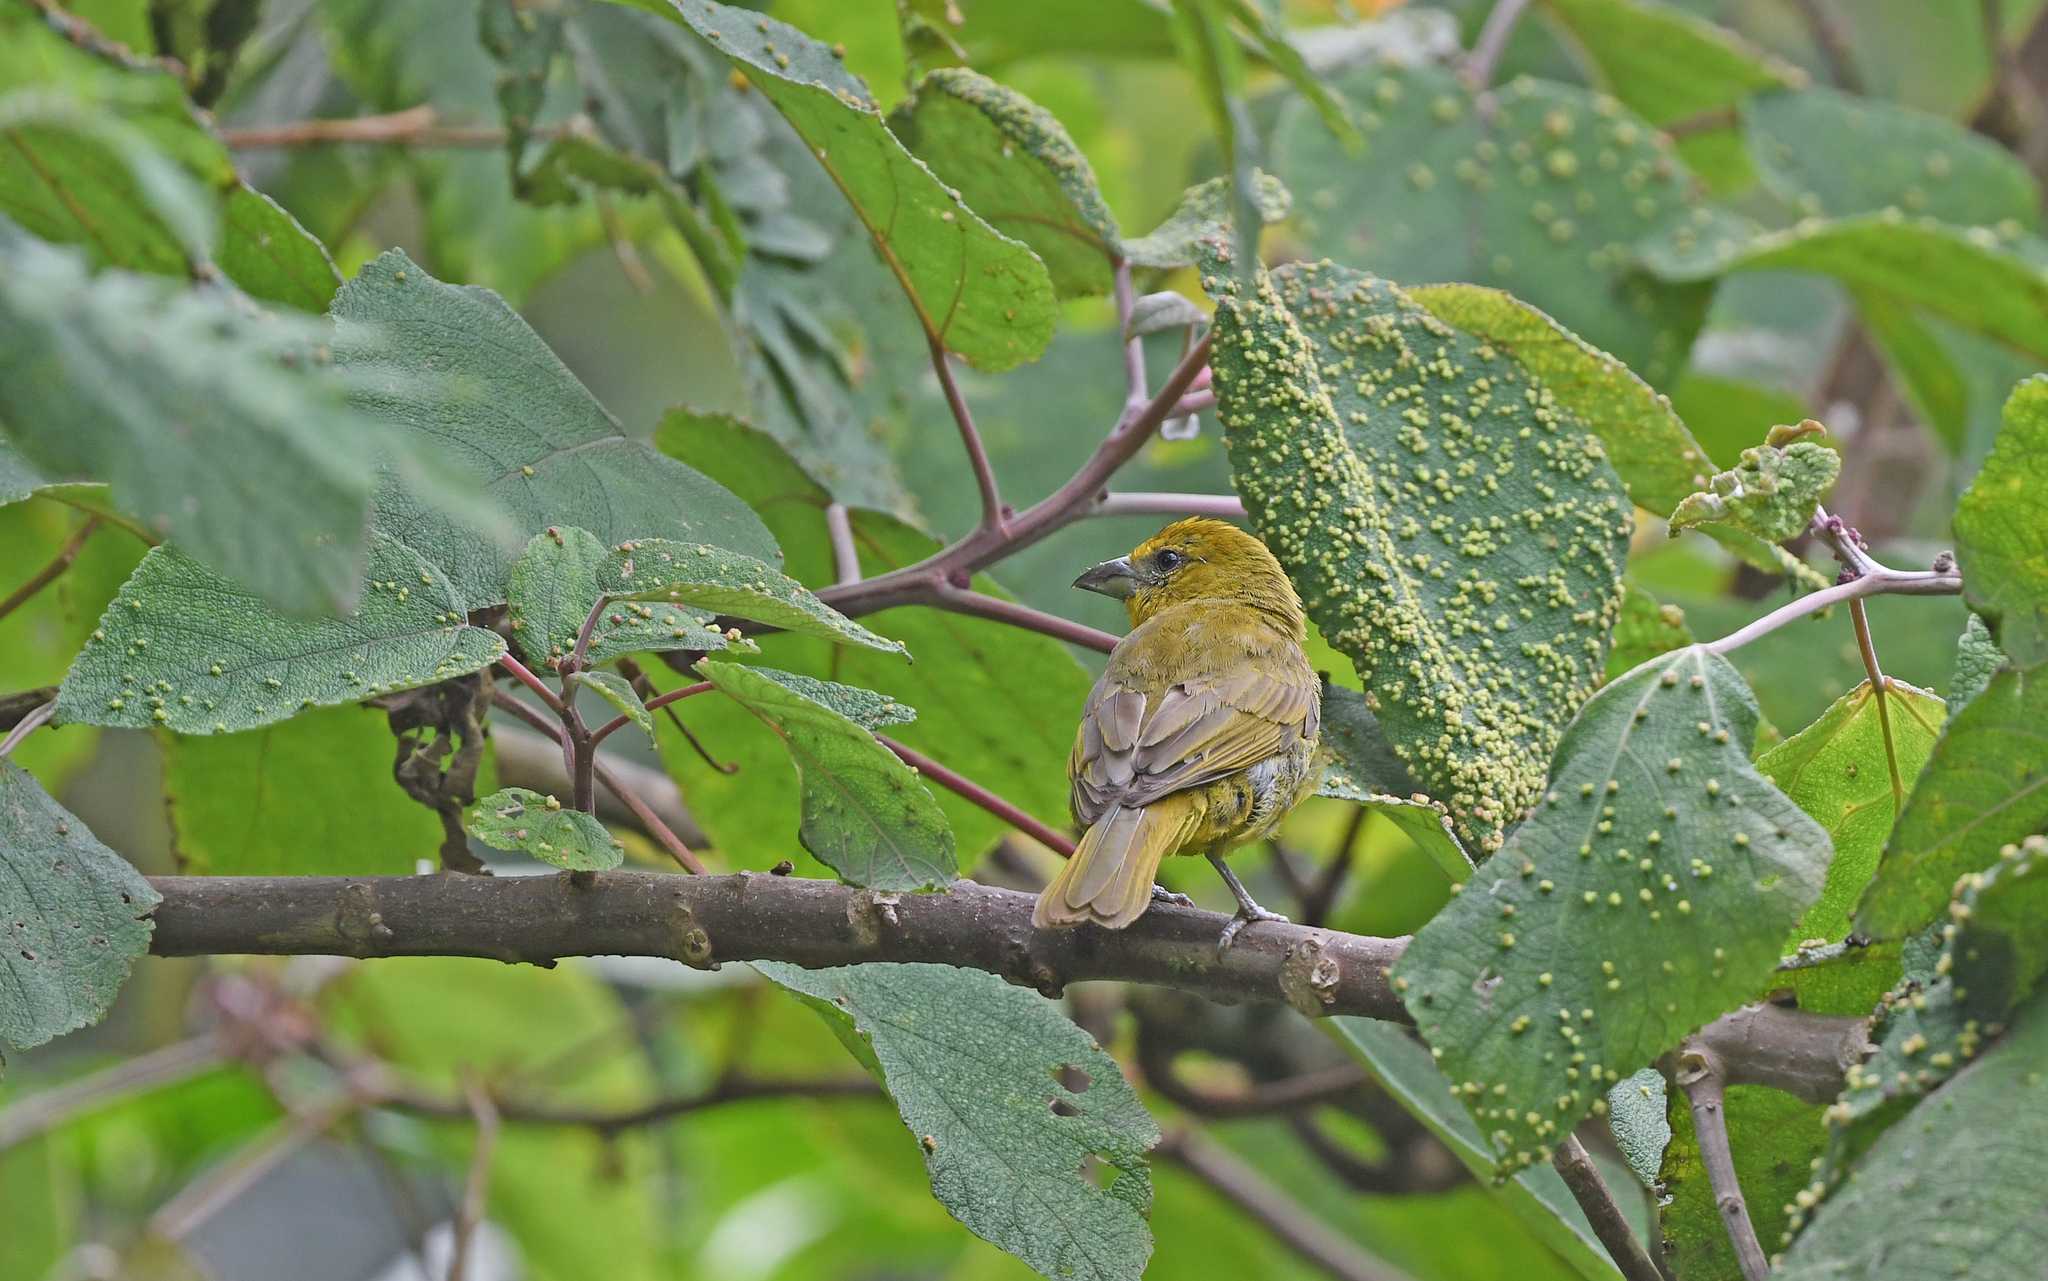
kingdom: Animalia
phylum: Chordata
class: Aves
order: Passeriformes
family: Cardinalidae
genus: Piranga
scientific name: Piranga flava
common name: Red tanager
